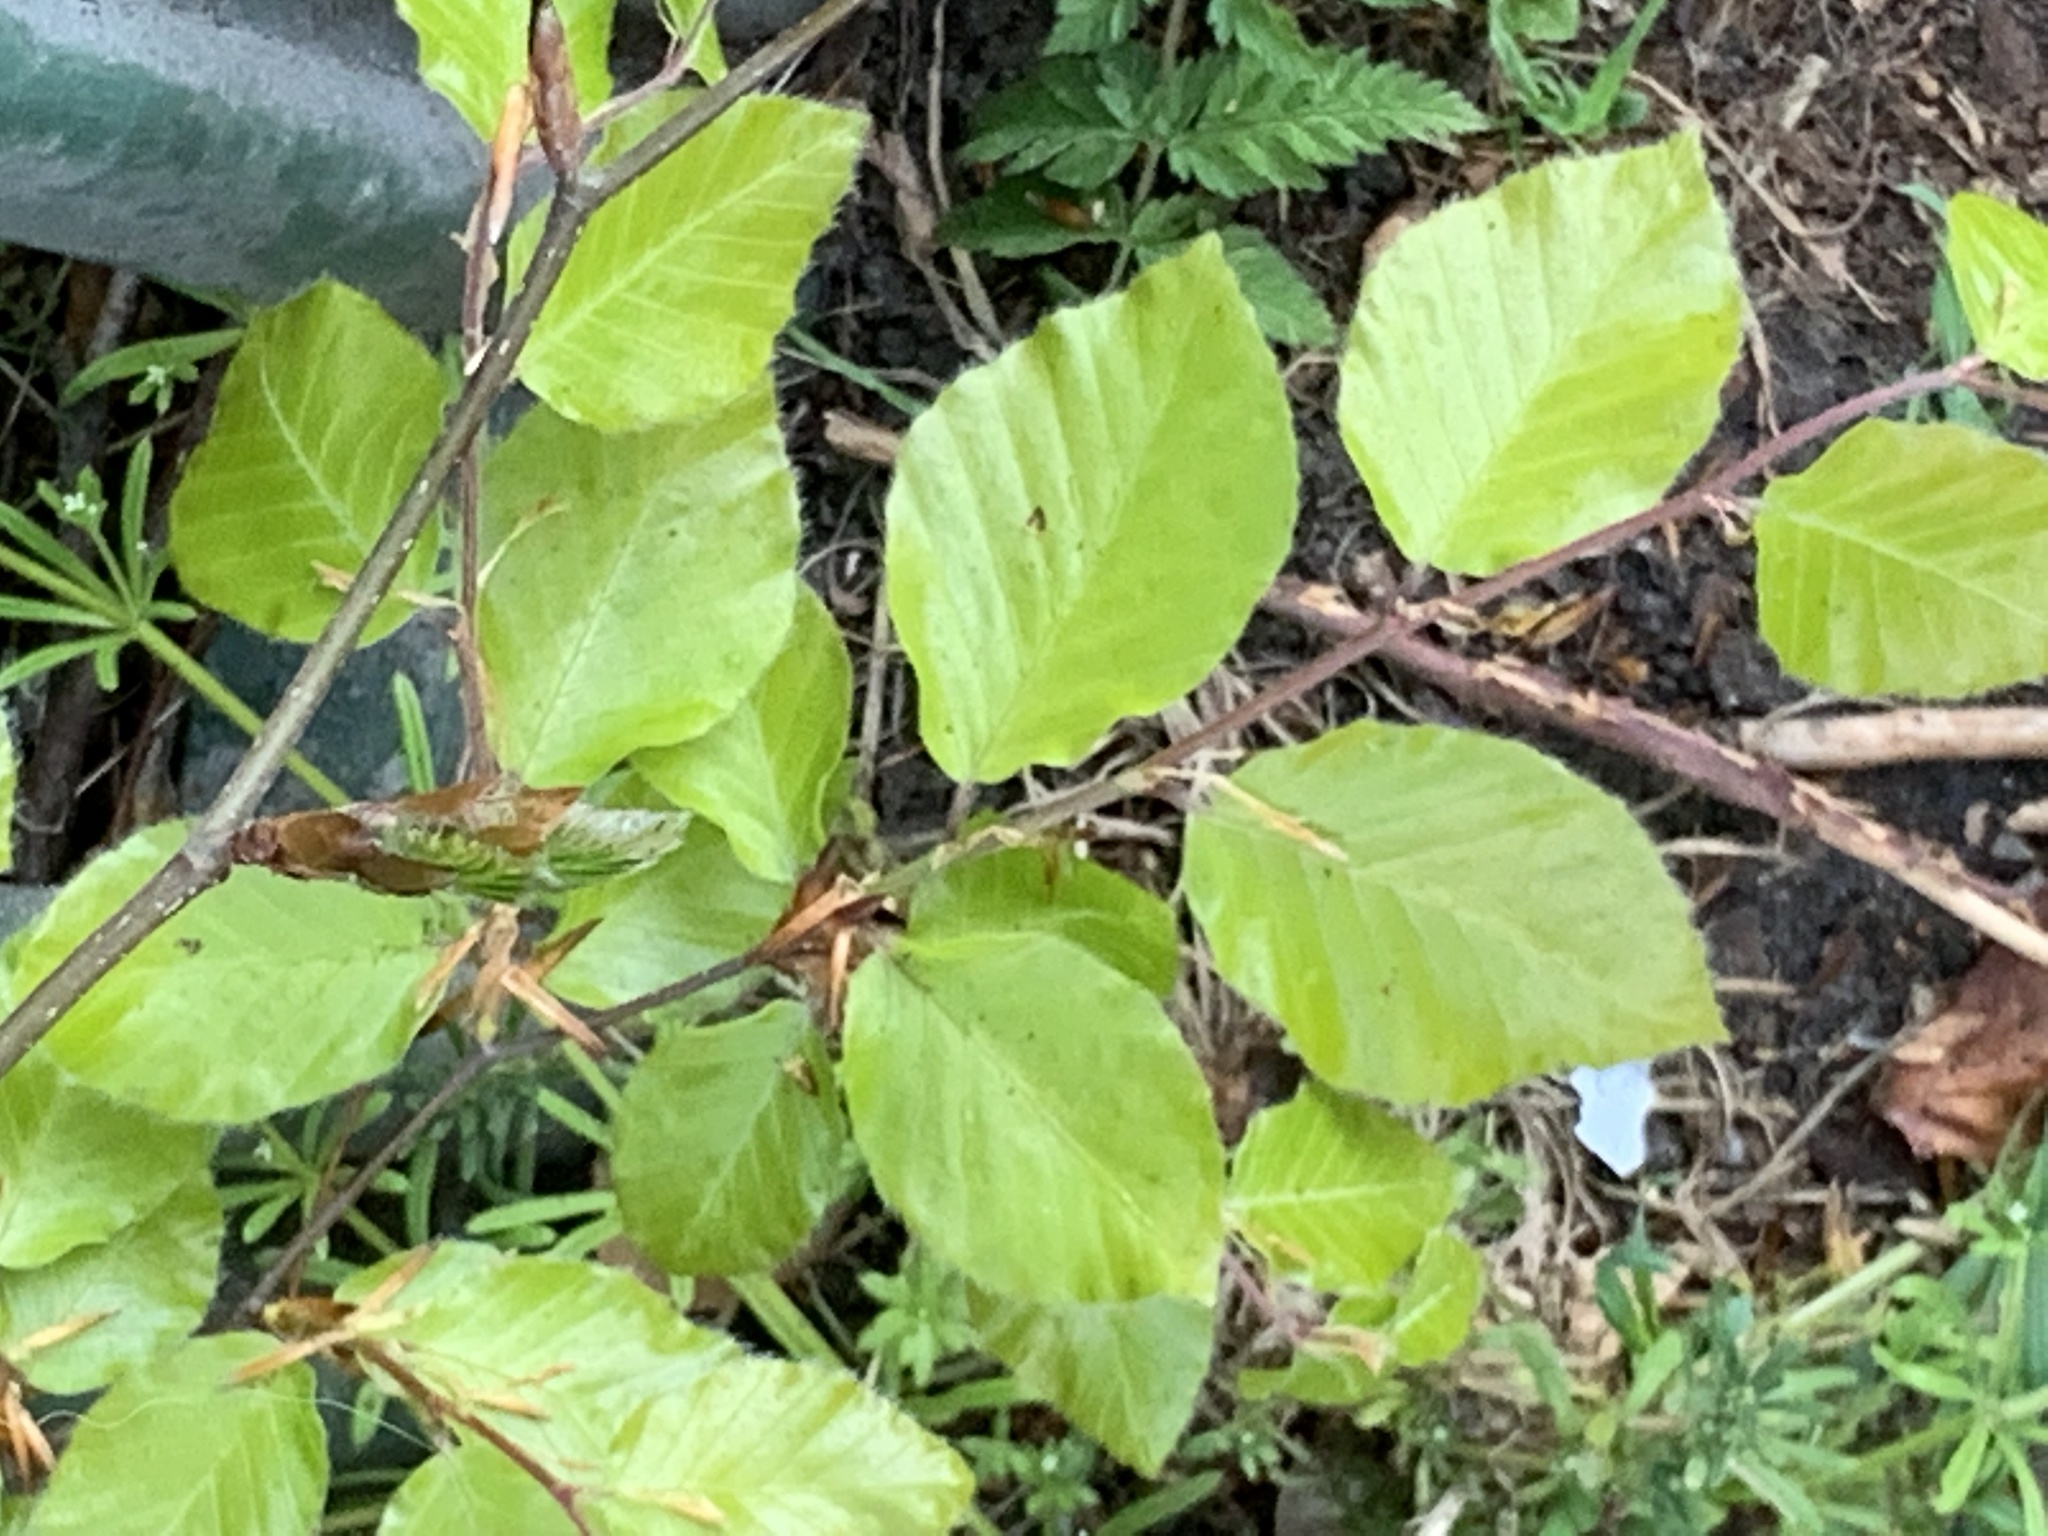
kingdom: Plantae
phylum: Tracheophyta
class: Magnoliopsida
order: Fagales
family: Fagaceae
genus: Fagus
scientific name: Fagus sylvatica
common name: Beech
